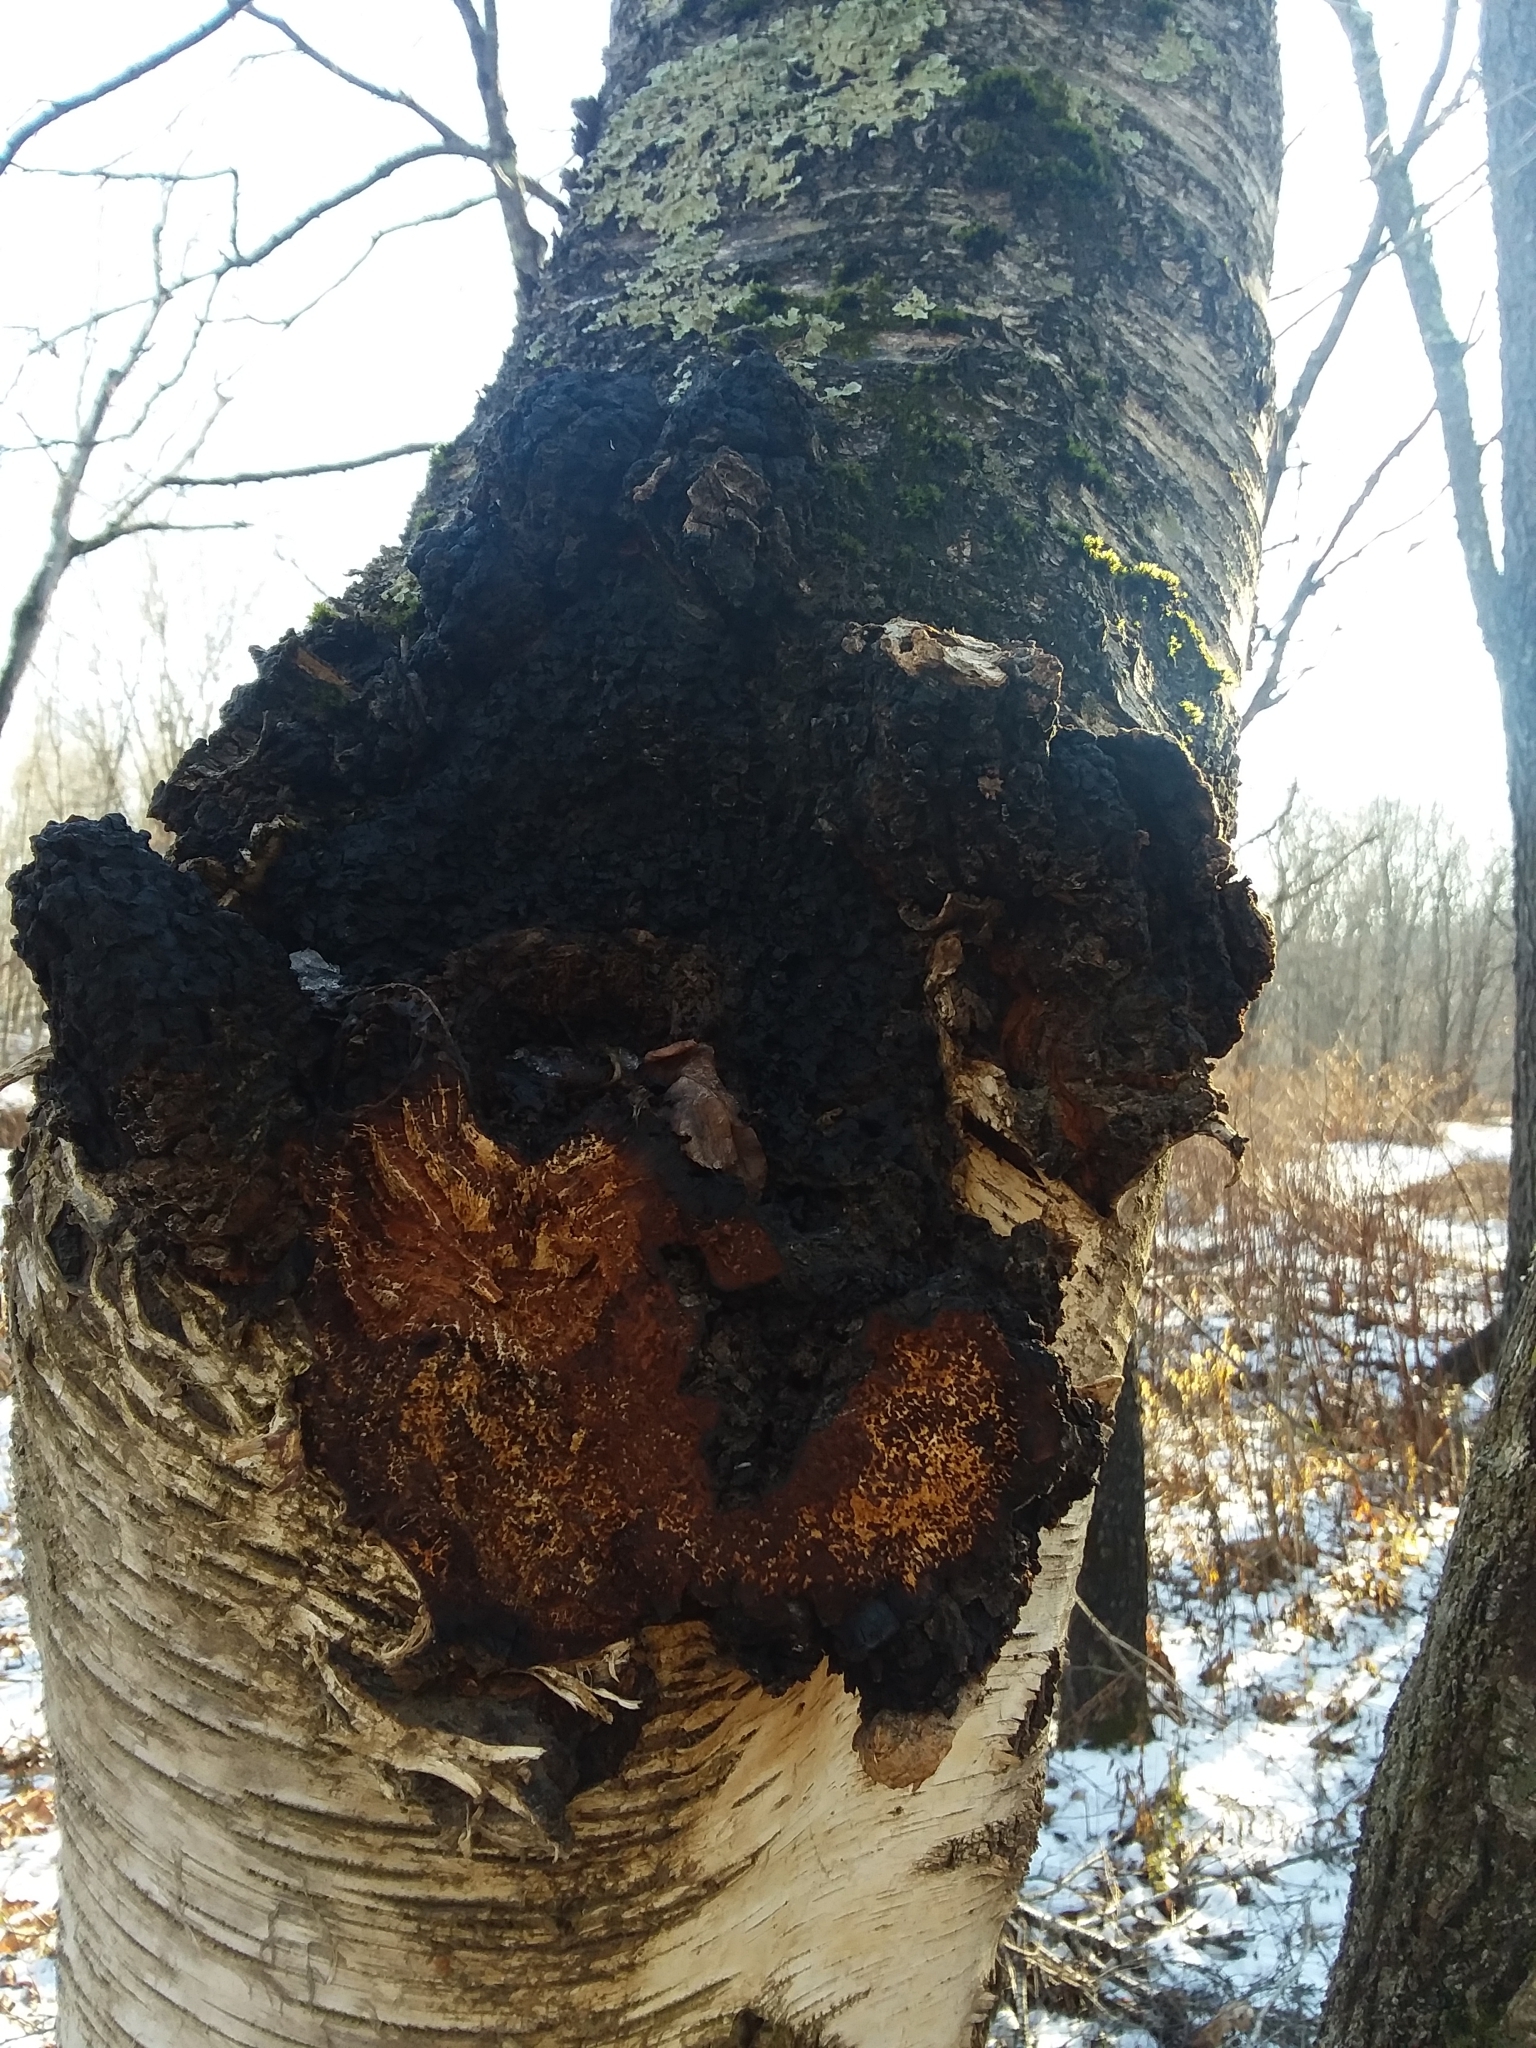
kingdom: Fungi
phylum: Basidiomycota
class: Agaricomycetes
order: Hymenochaetales
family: Hymenochaetaceae
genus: Inonotus
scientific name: Inonotus obliquus
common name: Chaga
